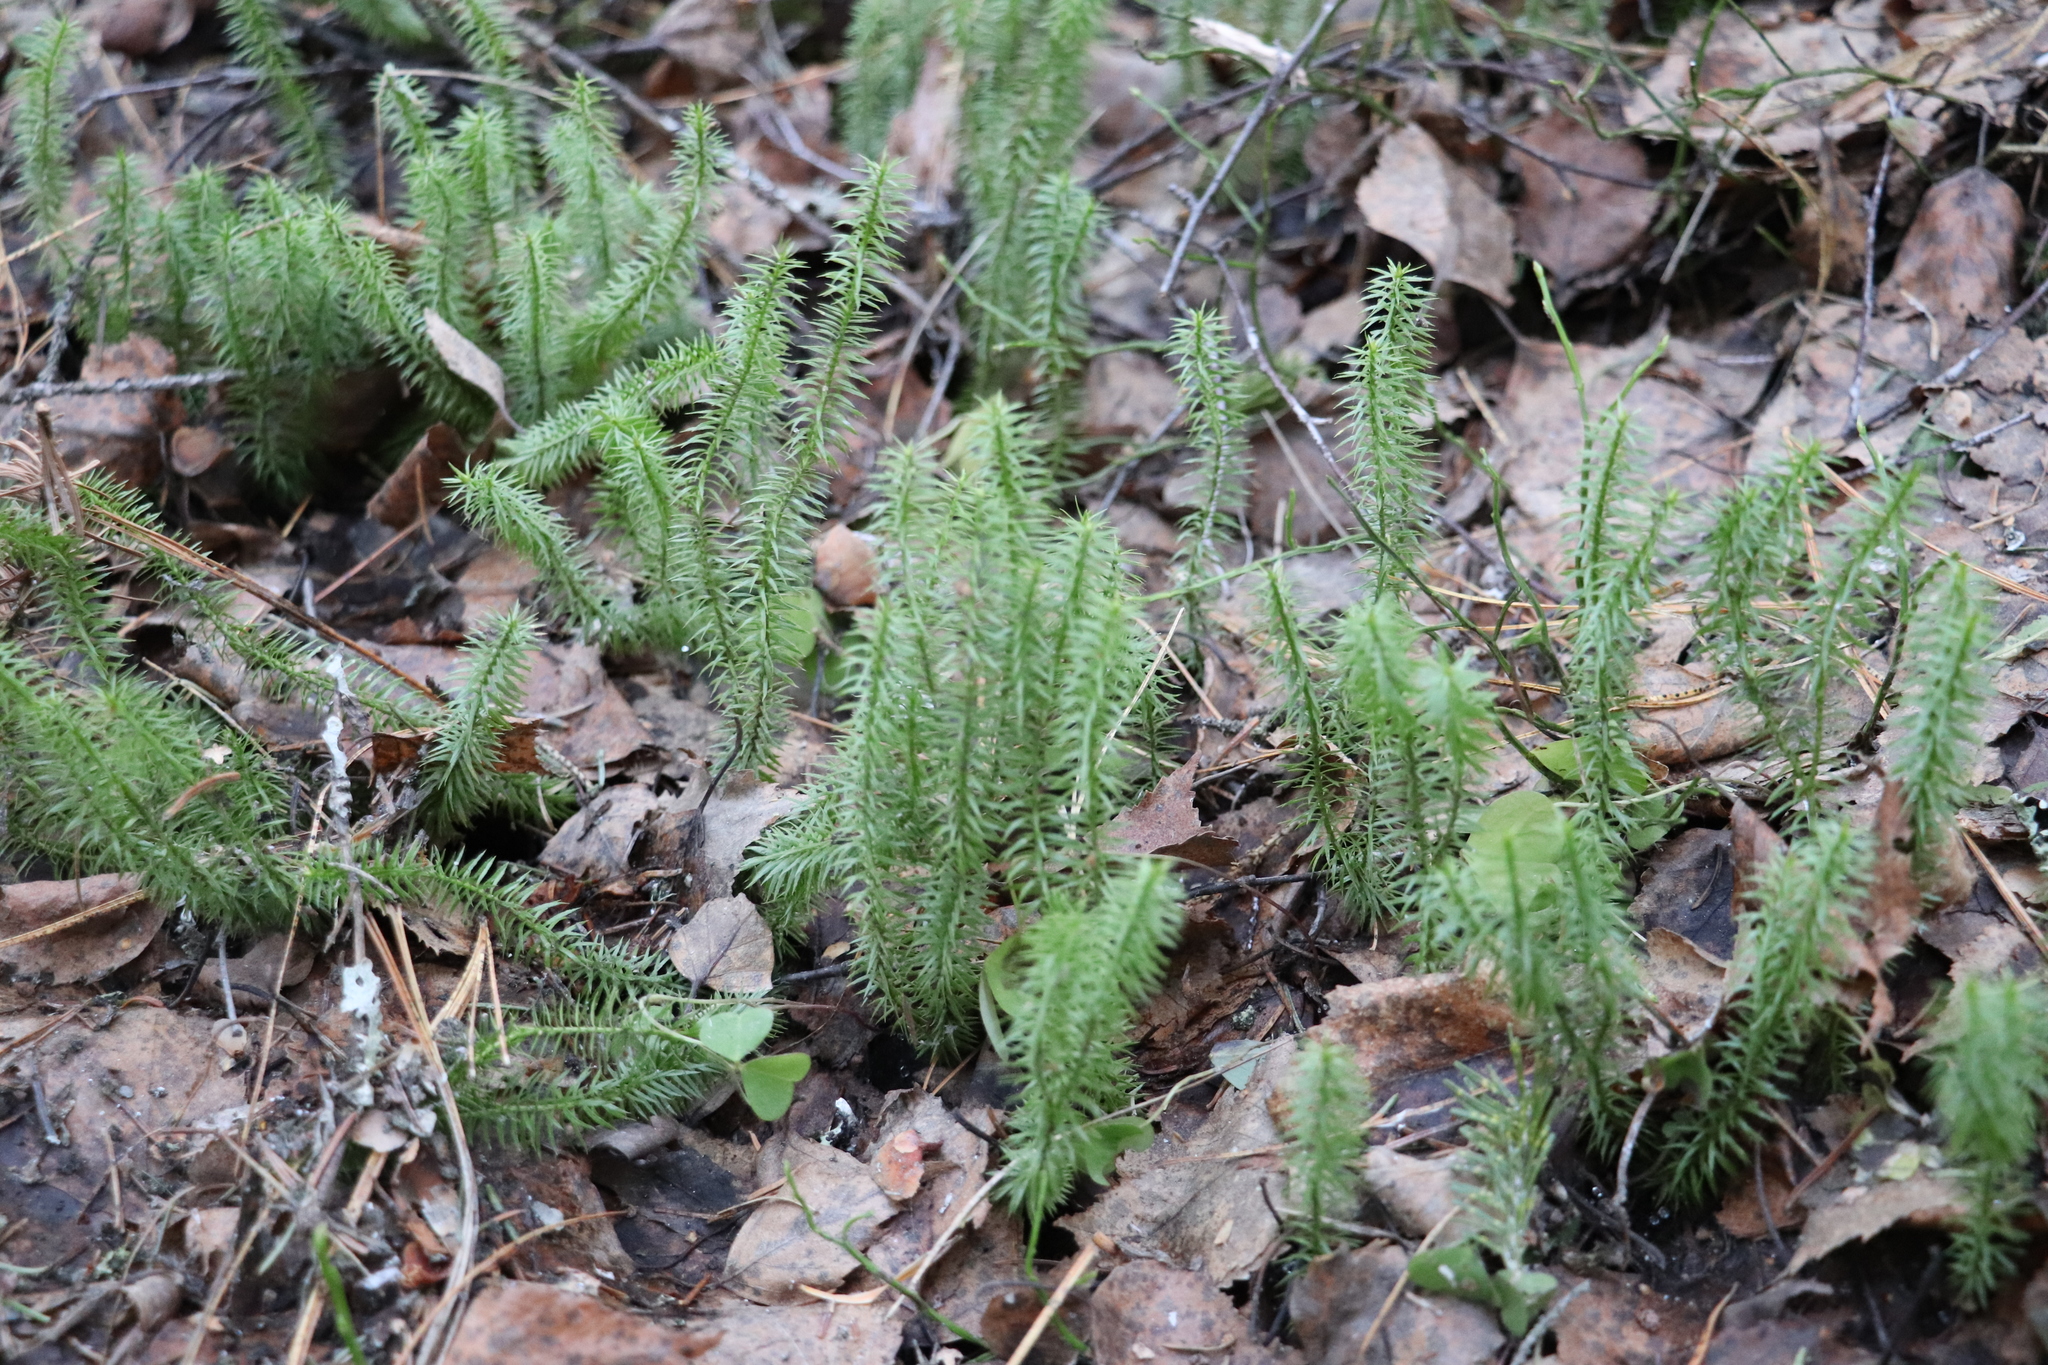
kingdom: Plantae
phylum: Tracheophyta
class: Lycopodiopsida
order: Lycopodiales
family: Lycopodiaceae
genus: Spinulum
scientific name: Spinulum annotinum
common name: Interrupted club-moss
